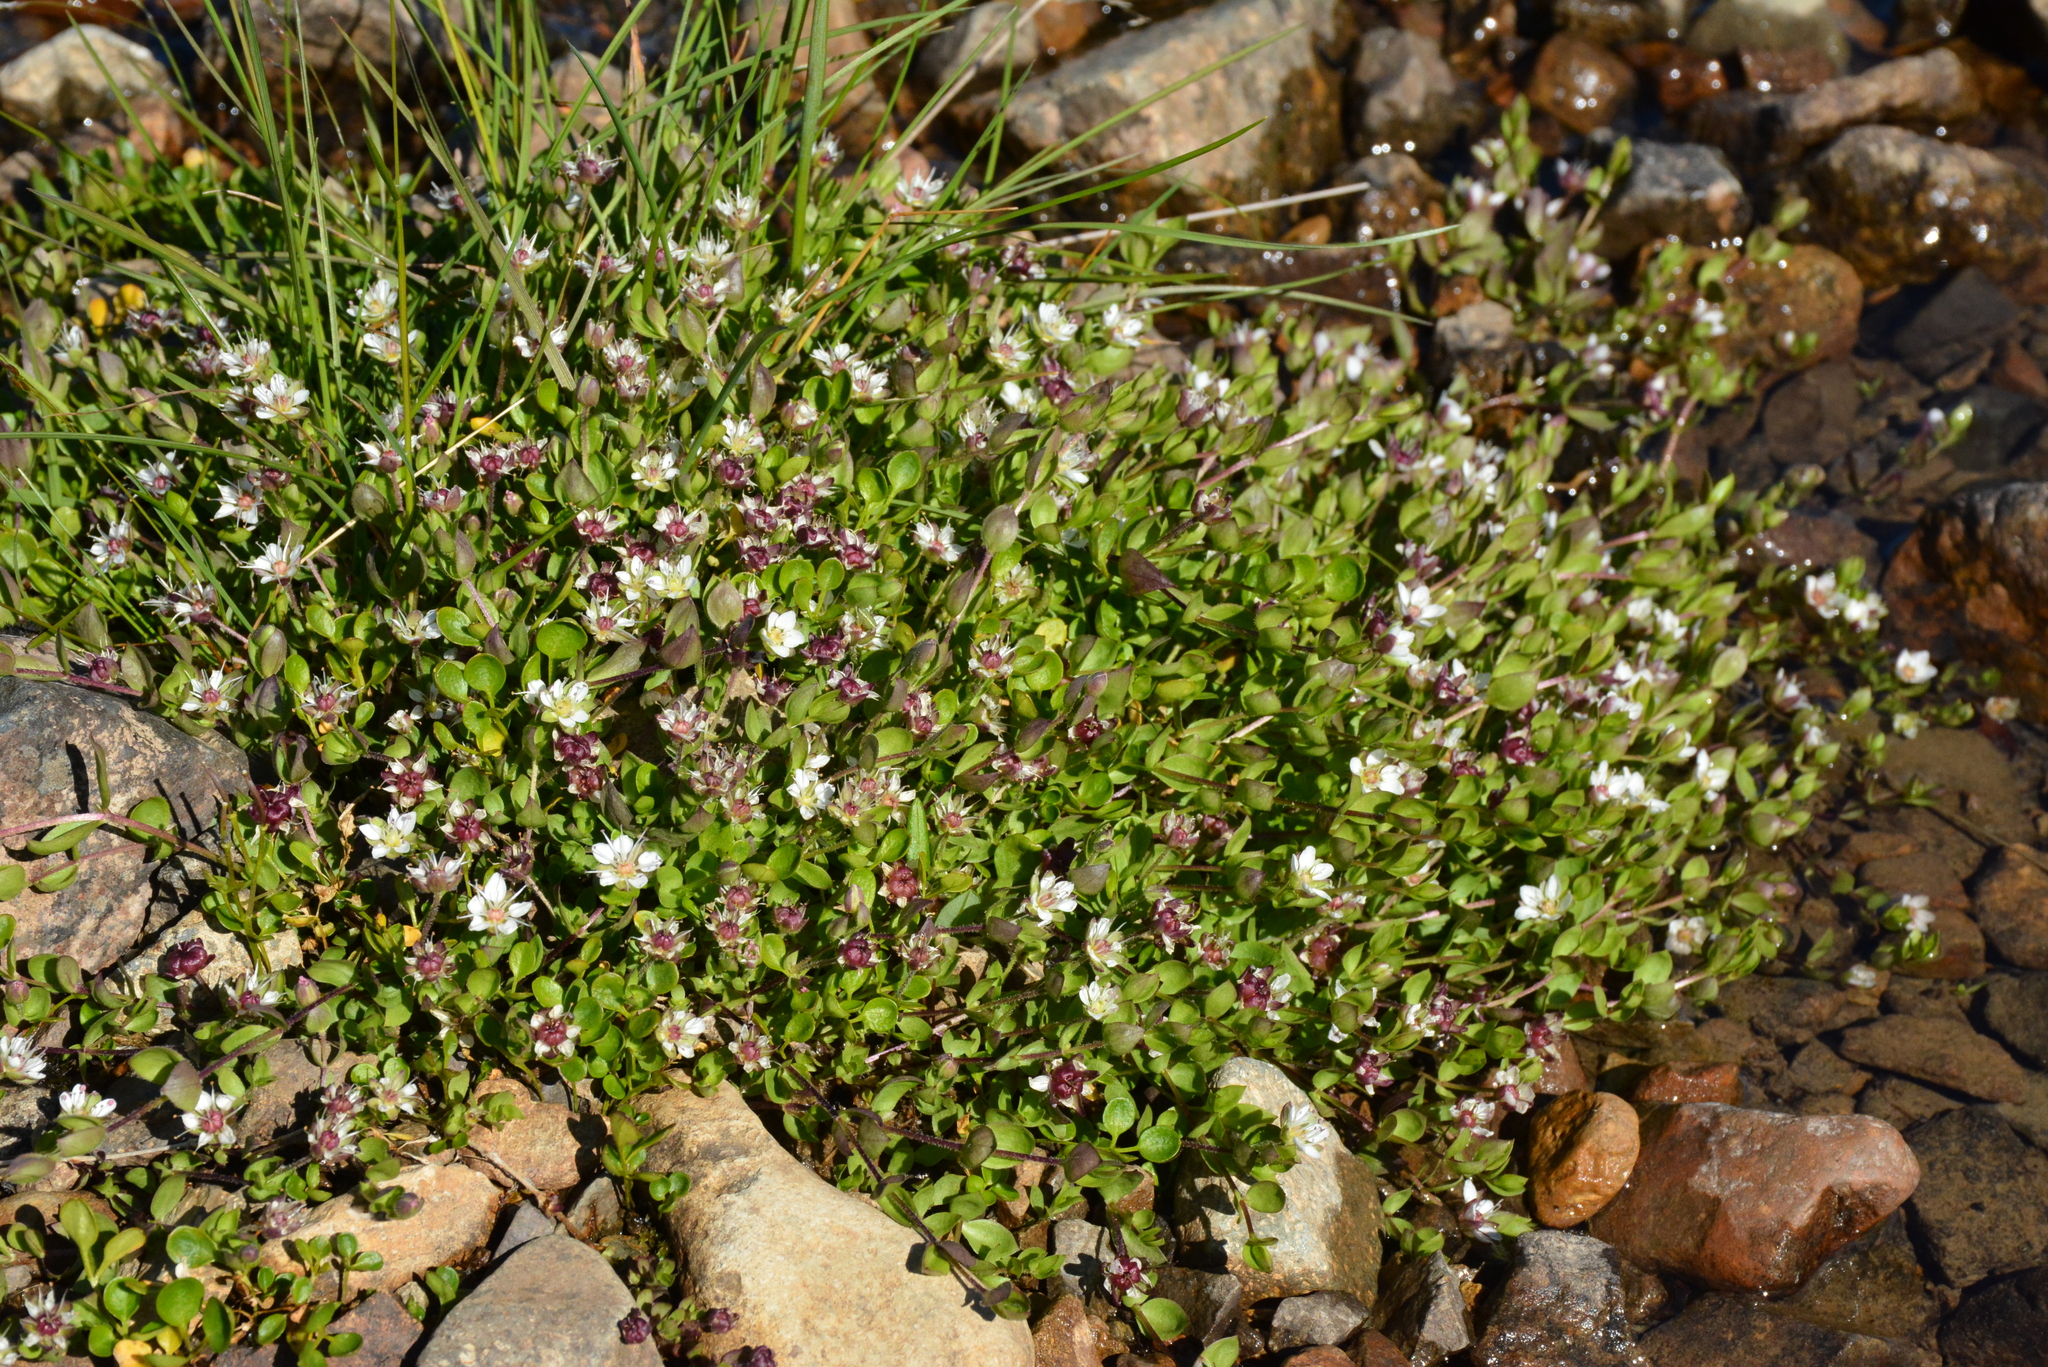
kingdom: Plantae
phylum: Tracheophyta
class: Magnoliopsida
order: Caryophyllales
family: Caryophyllaceae
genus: Wilhelmsia
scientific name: Wilhelmsia physodes
